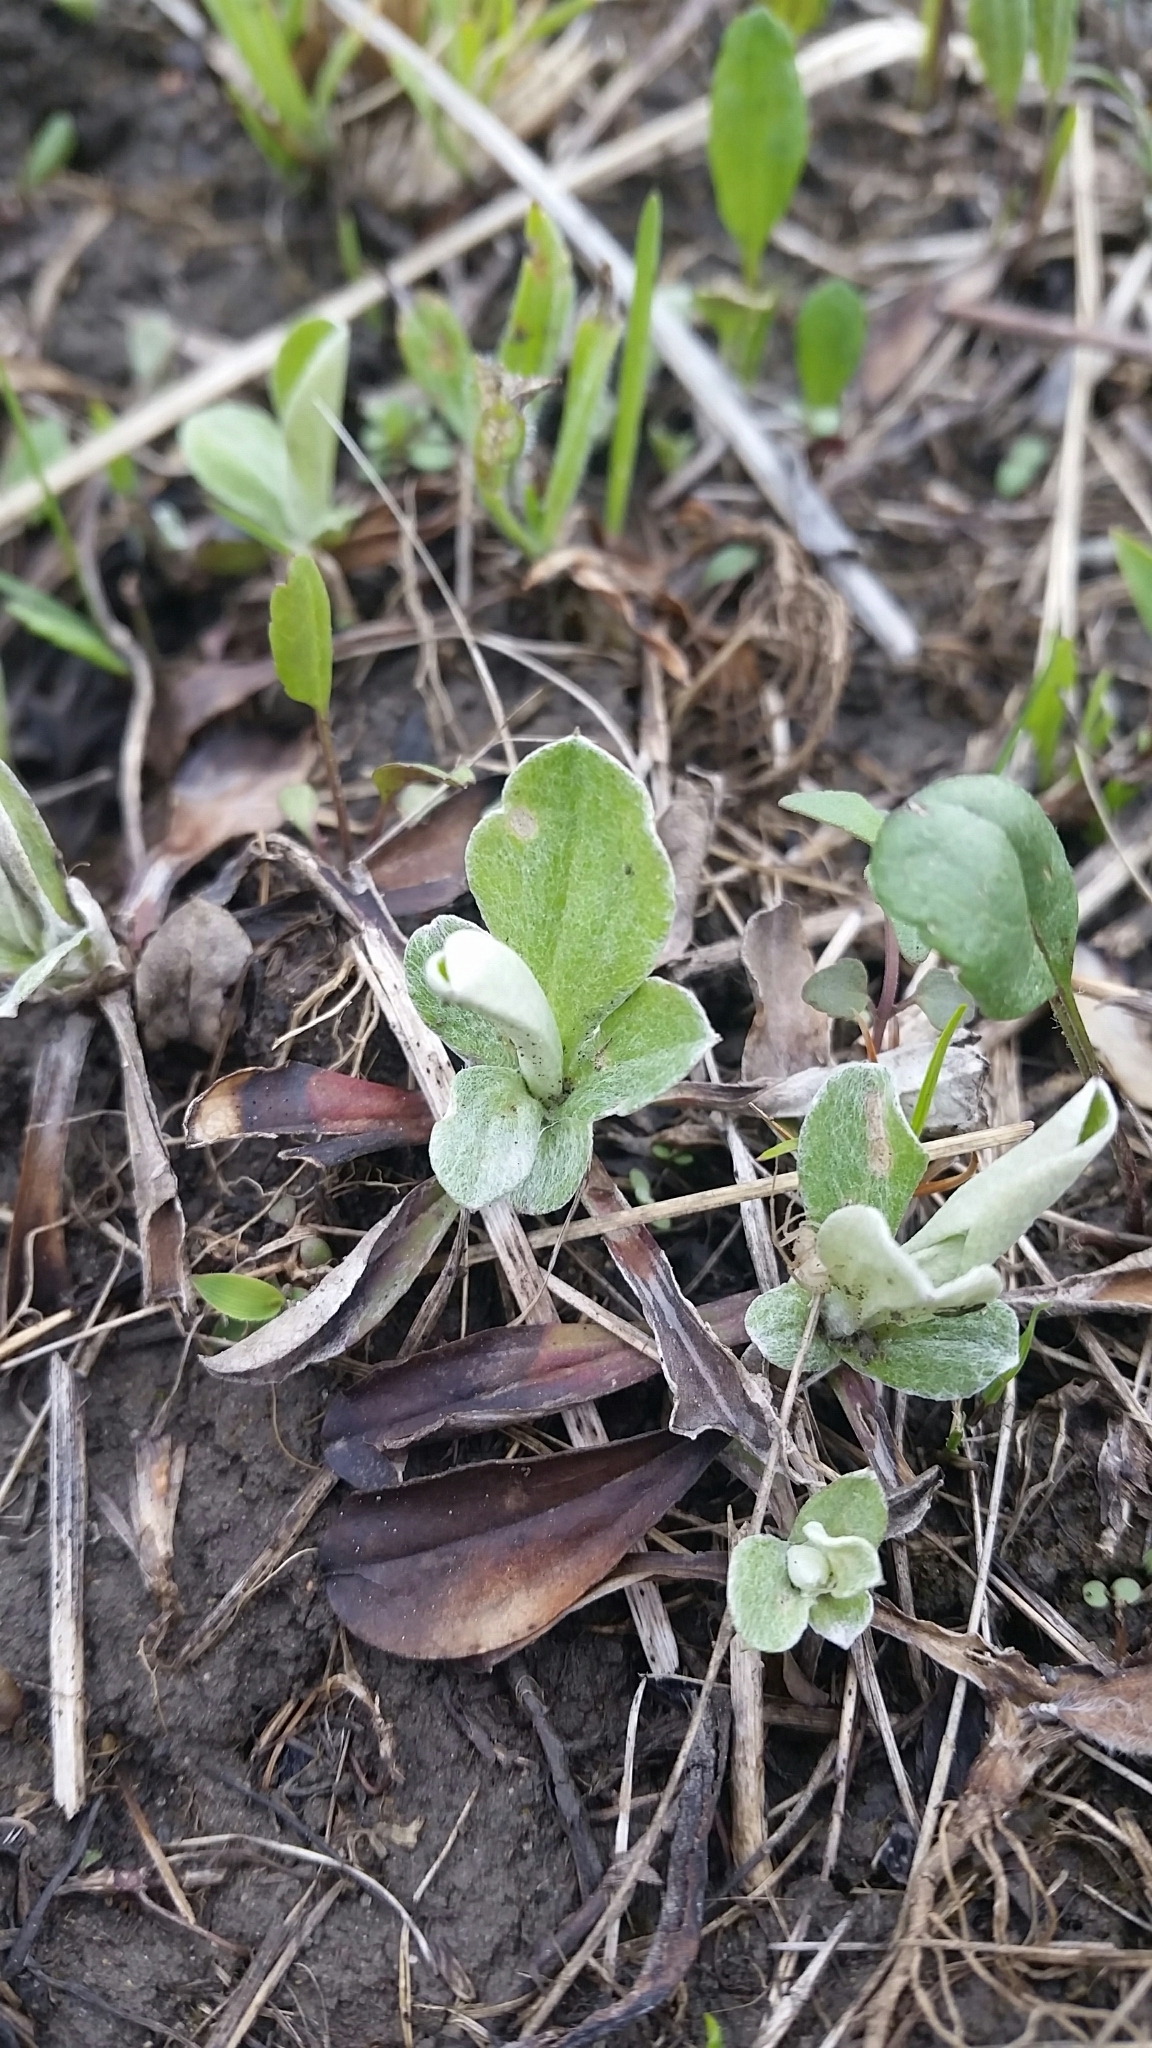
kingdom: Plantae
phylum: Tracheophyta
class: Magnoliopsida
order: Asterales
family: Asteraceae
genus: Antennaria
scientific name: Antennaria neglecta
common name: Field pussytoes
